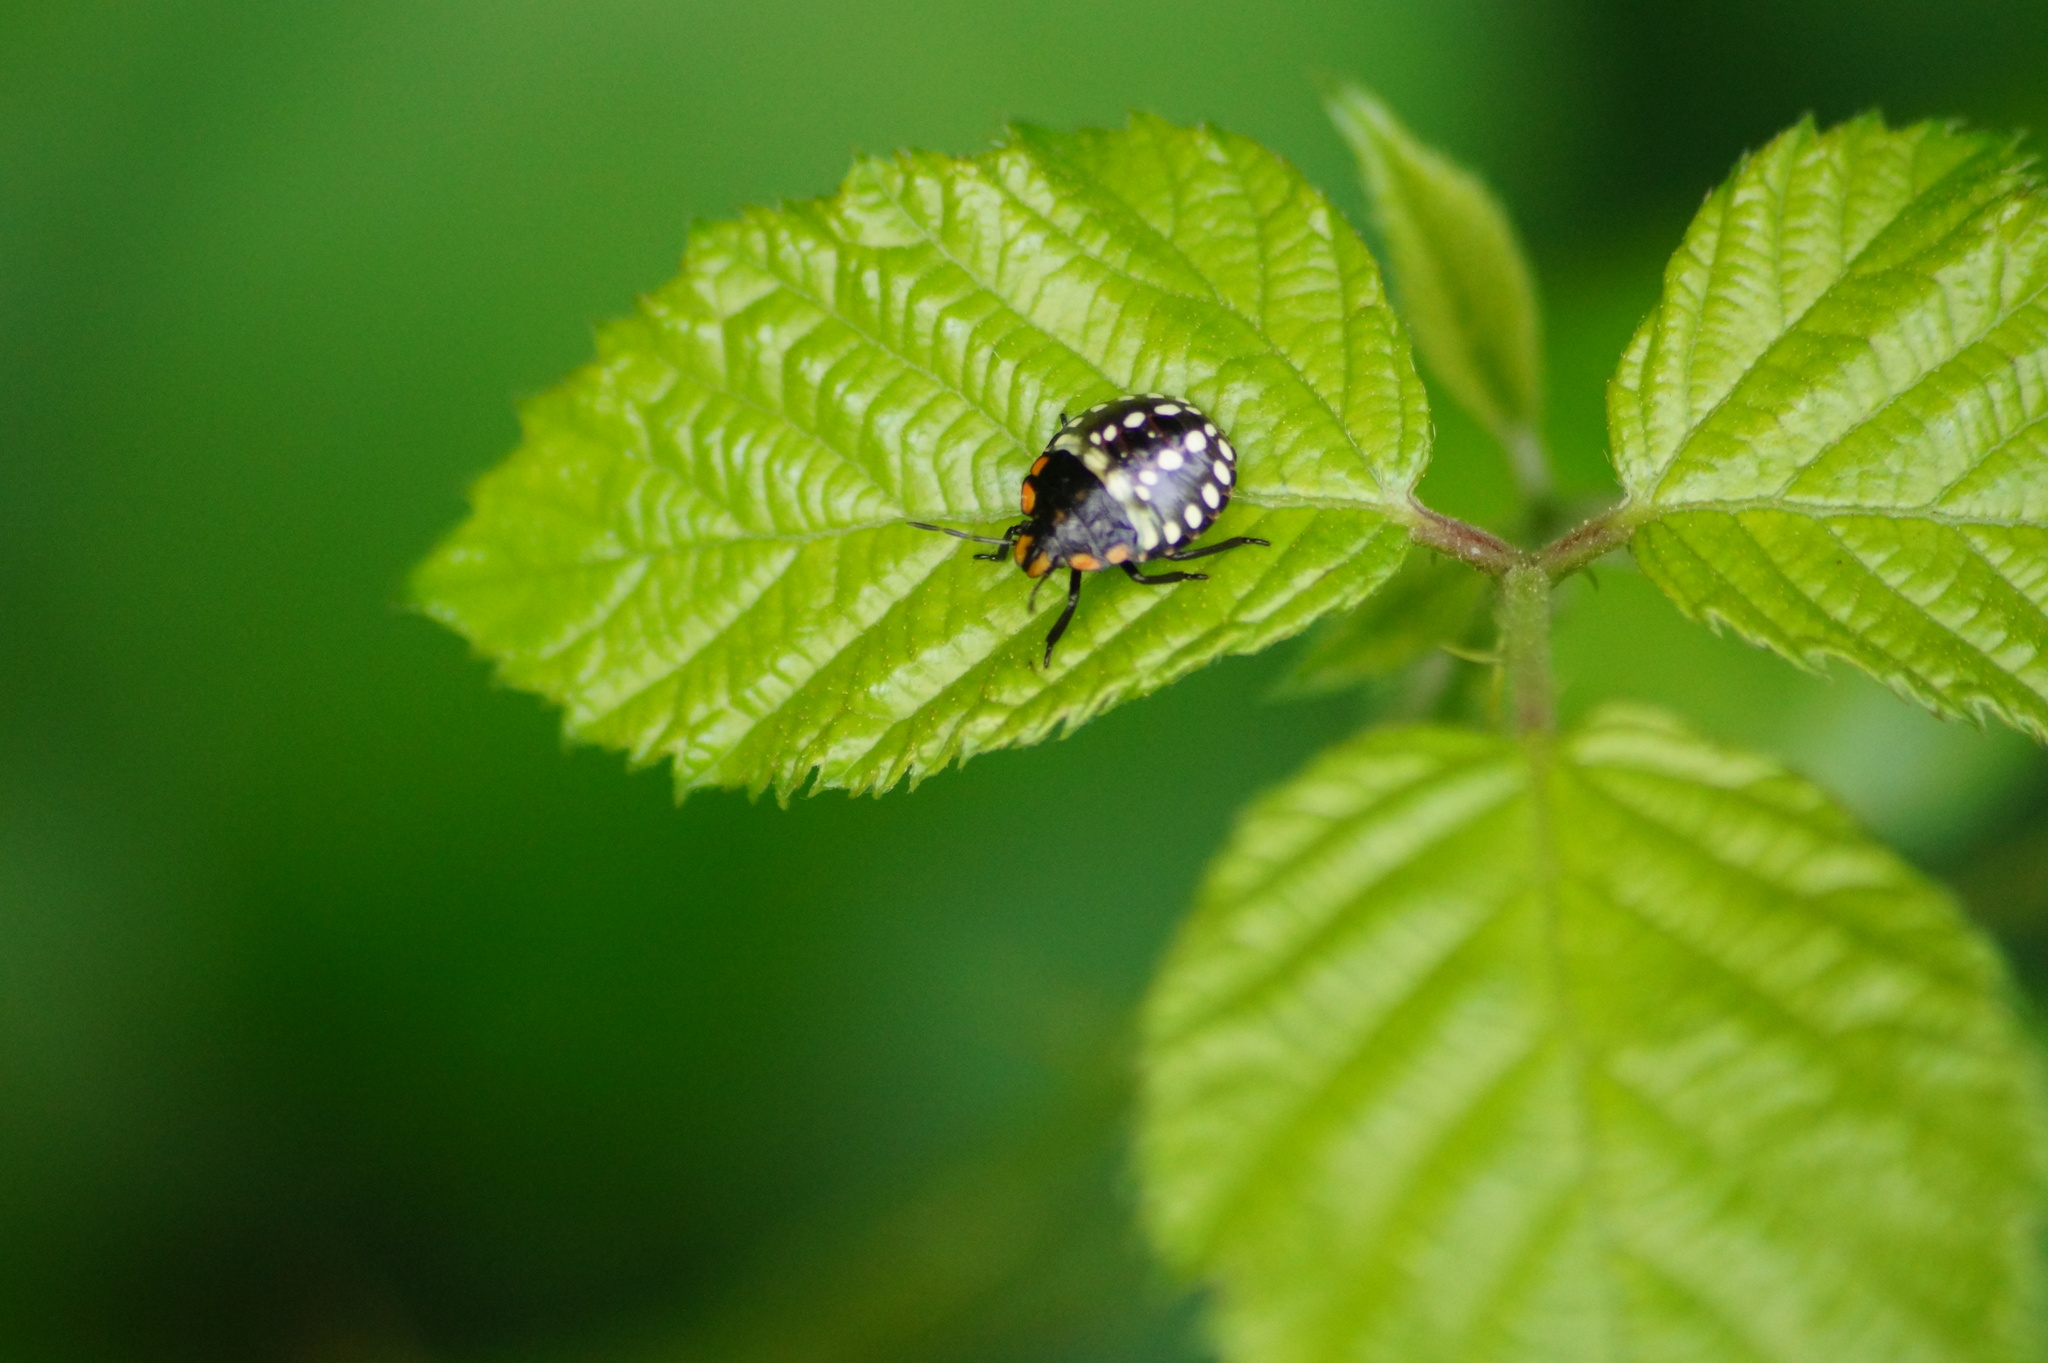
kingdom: Animalia
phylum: Arthropoda
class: Insecta
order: Hemiptera
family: Pentatomidae
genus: Nezara
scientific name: Nezara viridula
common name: Southern green stink bug
